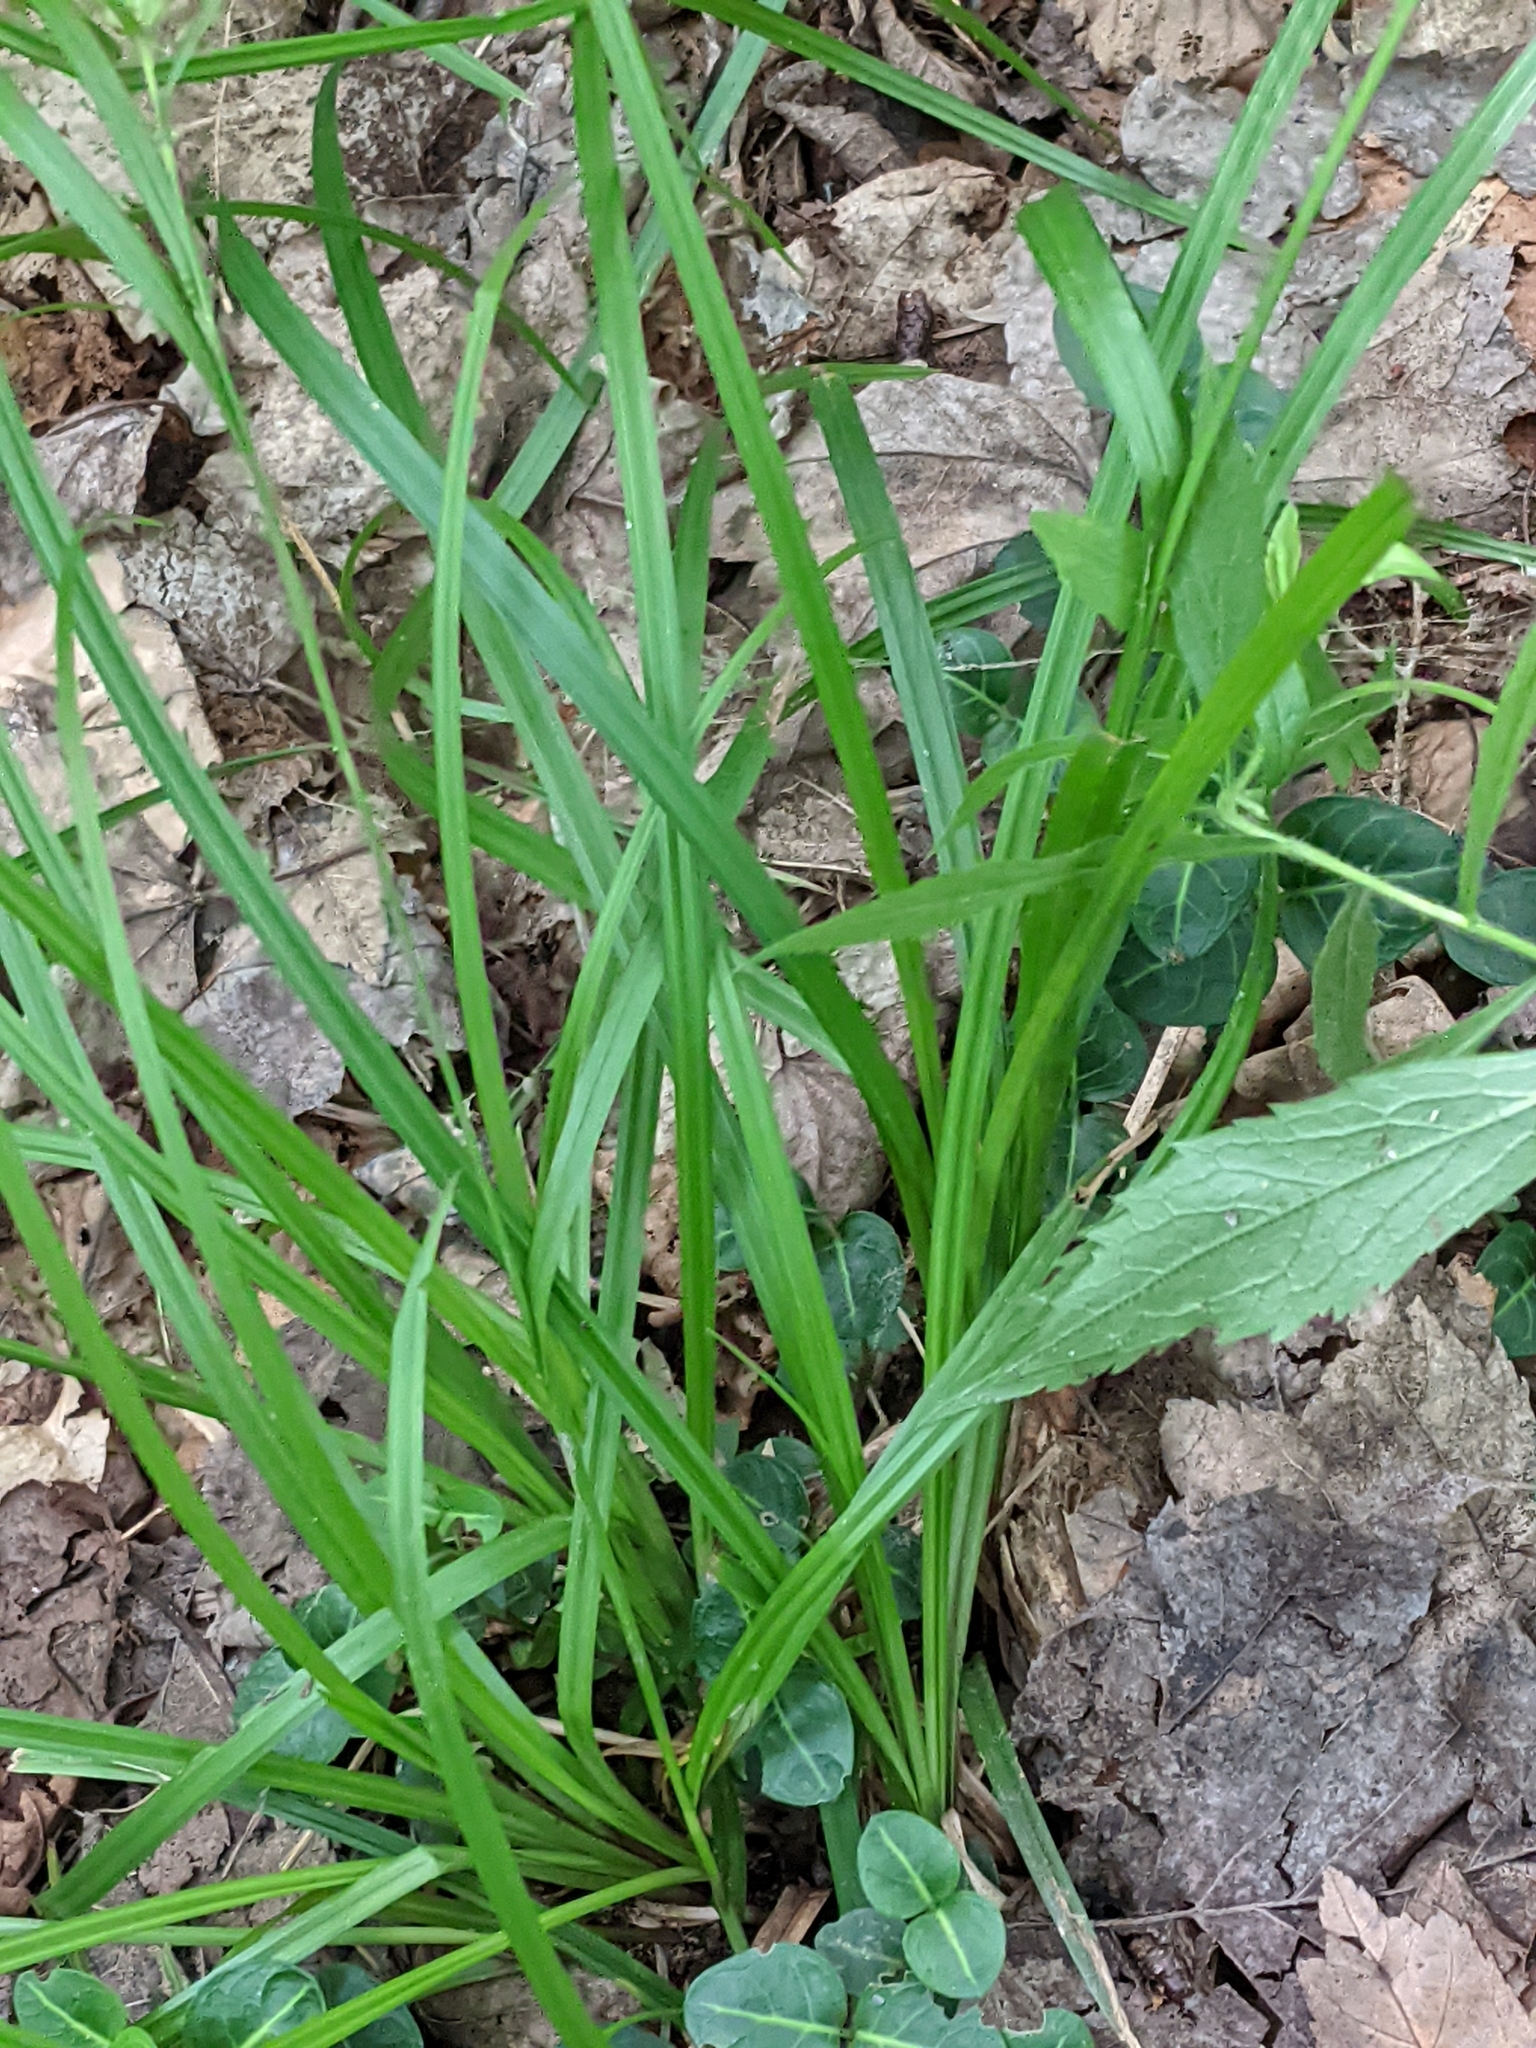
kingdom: Plantae
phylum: Tracheophyta
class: Liliopsida
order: Poales
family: Cyperaceae
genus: Carex
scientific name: Carex intumescens
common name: Greater bladder sedge
